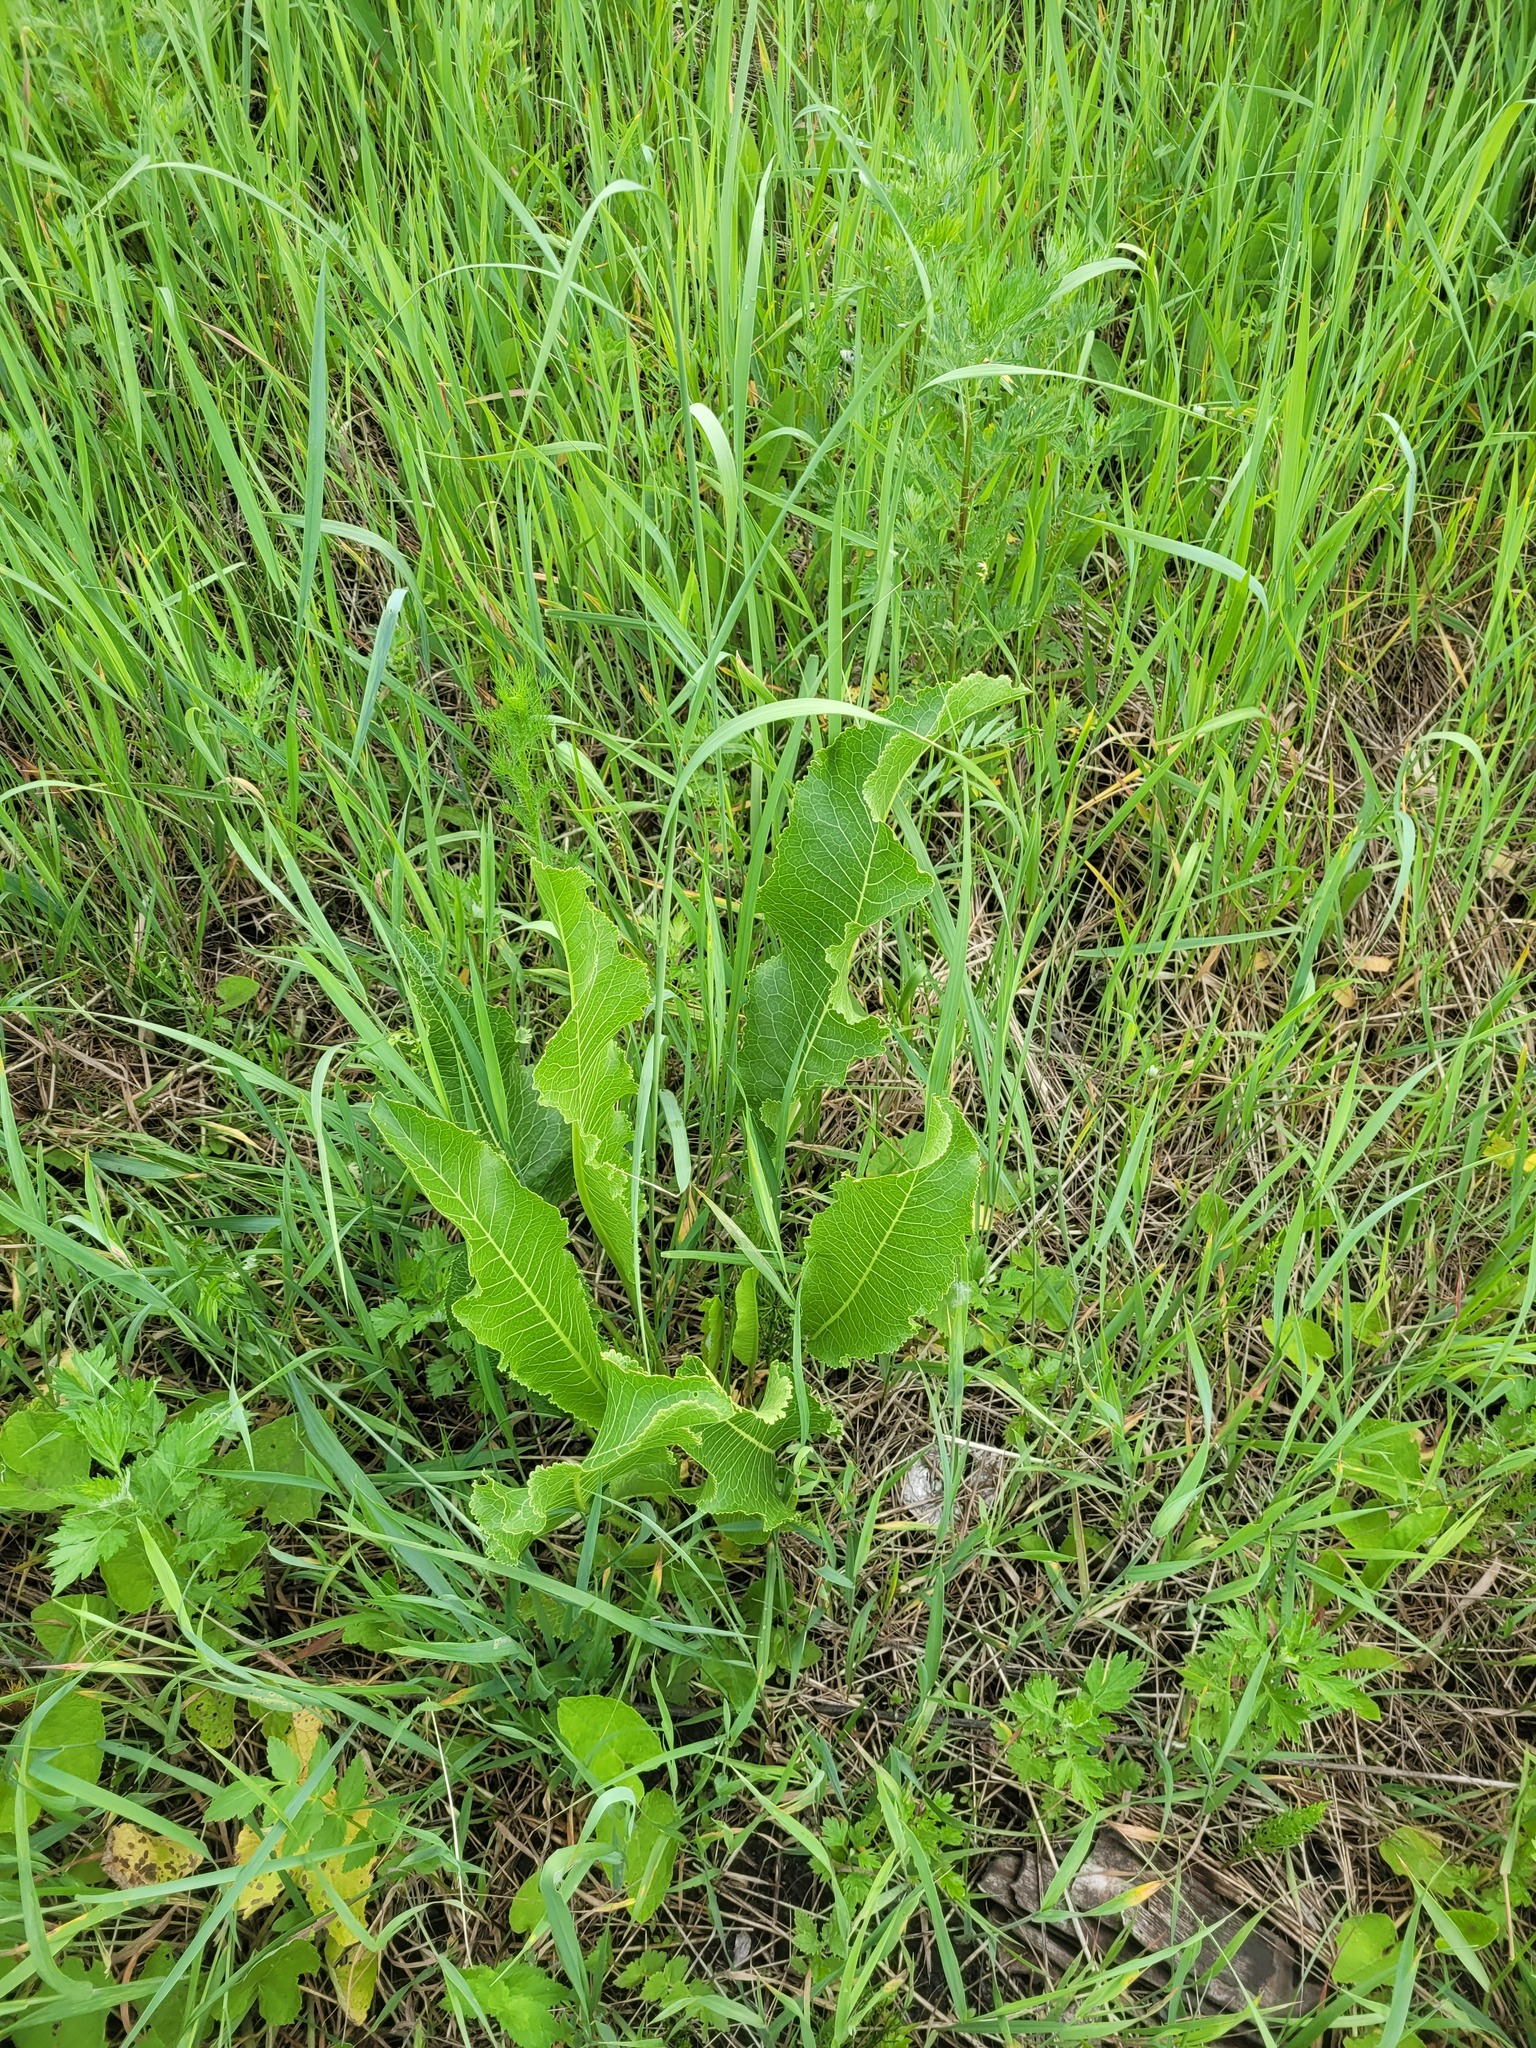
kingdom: Plantae
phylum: Tracheophyta
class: Magnoliopsida
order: Brassicales
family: Brassicaceae
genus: Armoracia
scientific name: Armoracia rusticana
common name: Horseradish
